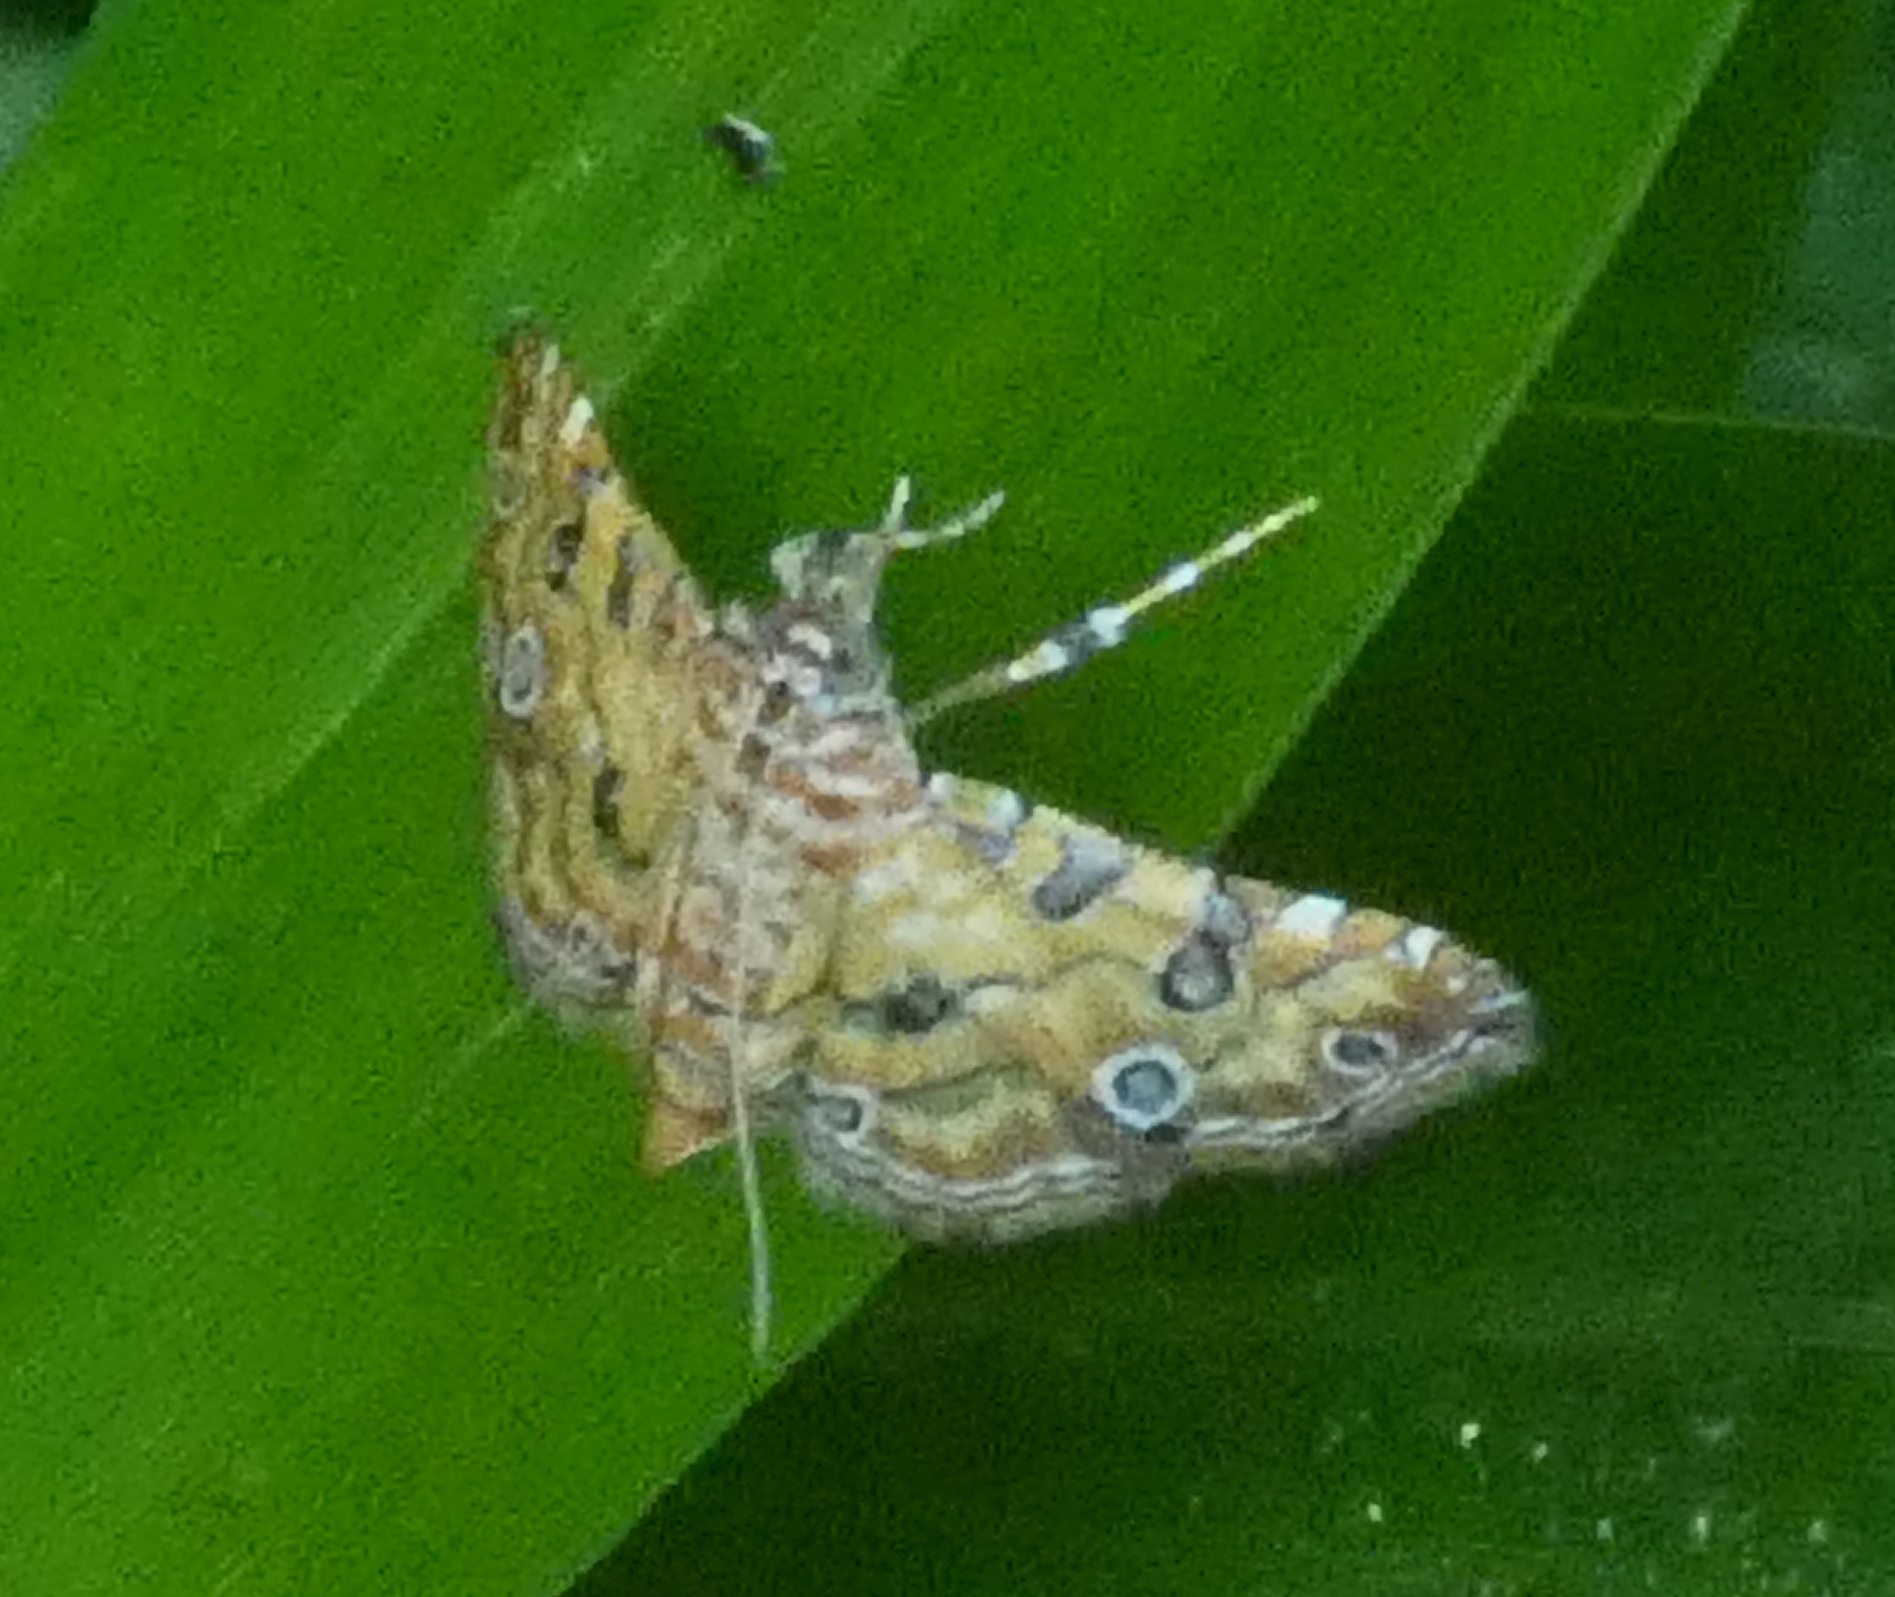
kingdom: Animalia
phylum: Arthropoda
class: Insecta
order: Lepidoptera
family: Crambidae
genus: Ommatospila
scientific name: Ommatospila narcaeusalis
